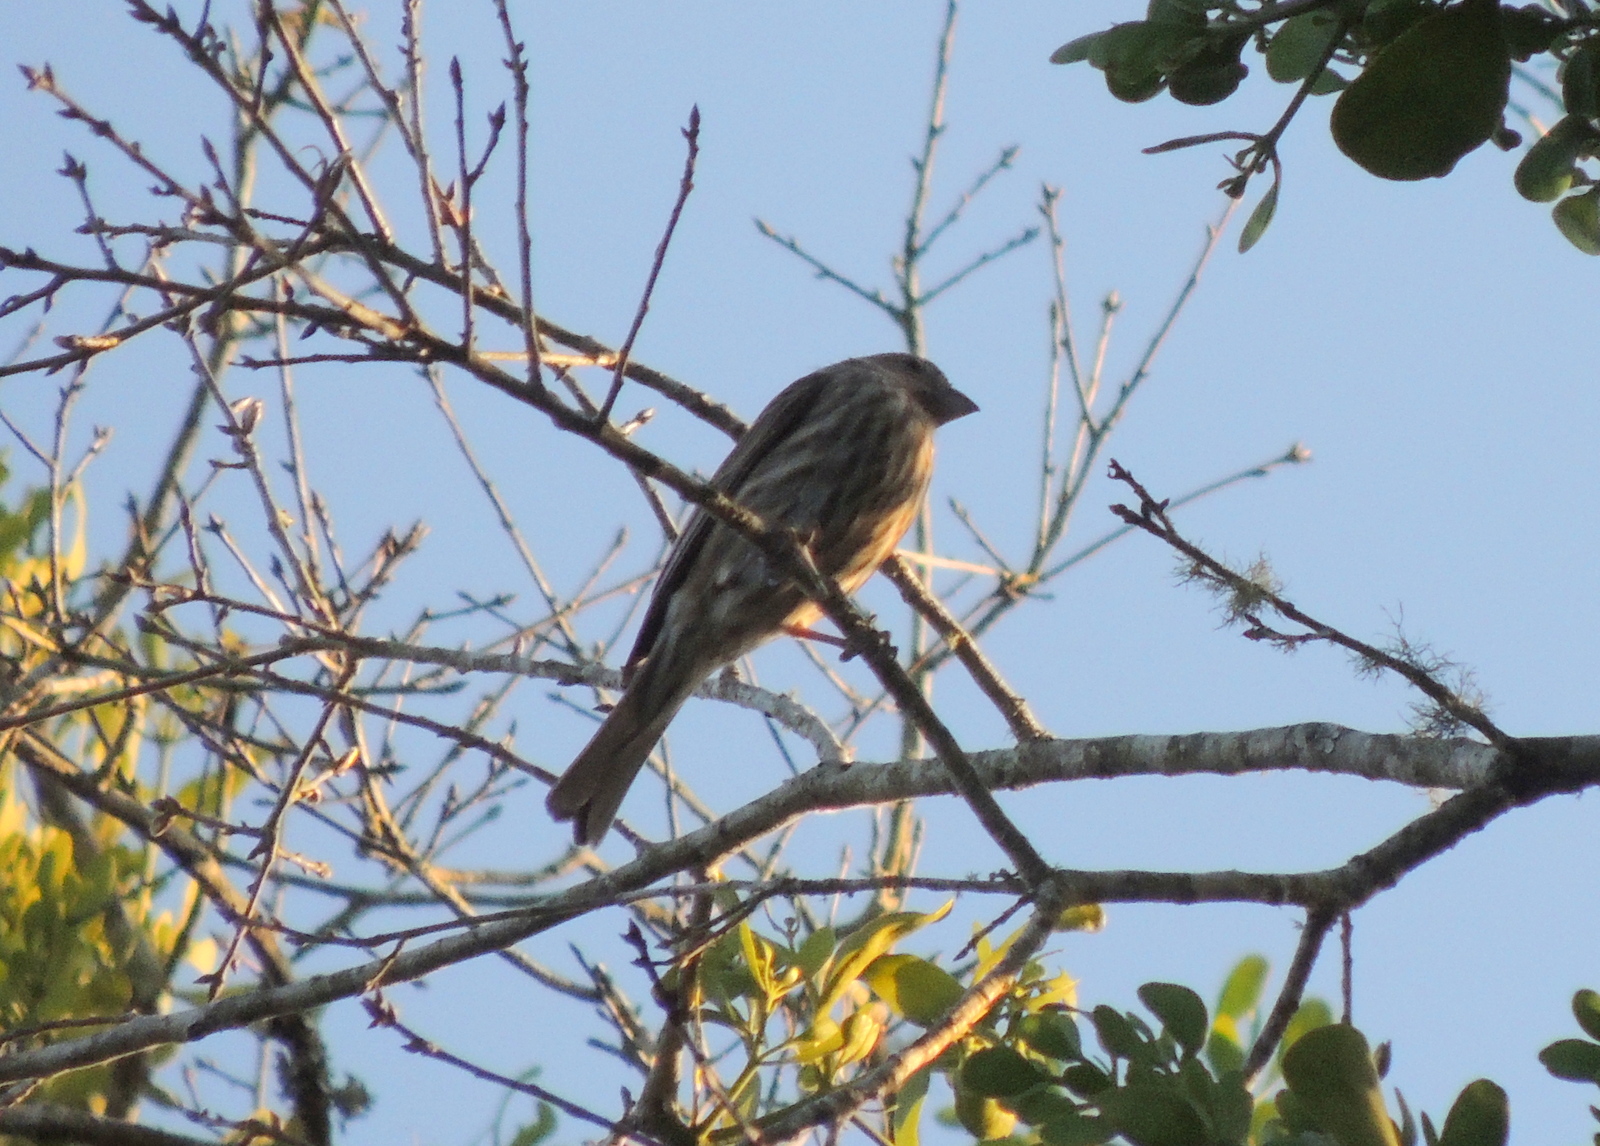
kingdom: Animalia
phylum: Chordata
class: Aves
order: Passeriformes
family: Fringillidae
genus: Haemorhous
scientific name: Haemorhous mexicanus
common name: House finch
